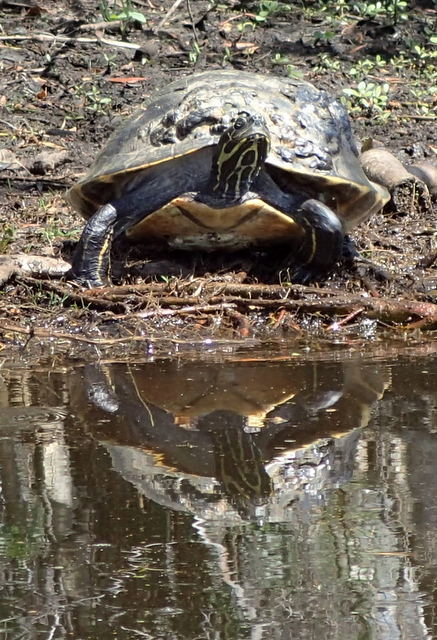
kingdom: Animalia
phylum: Chordata
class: Testudines
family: Emydidae
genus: Pseudemys
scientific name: Pseudemys concinna
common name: Eastern river cooter
